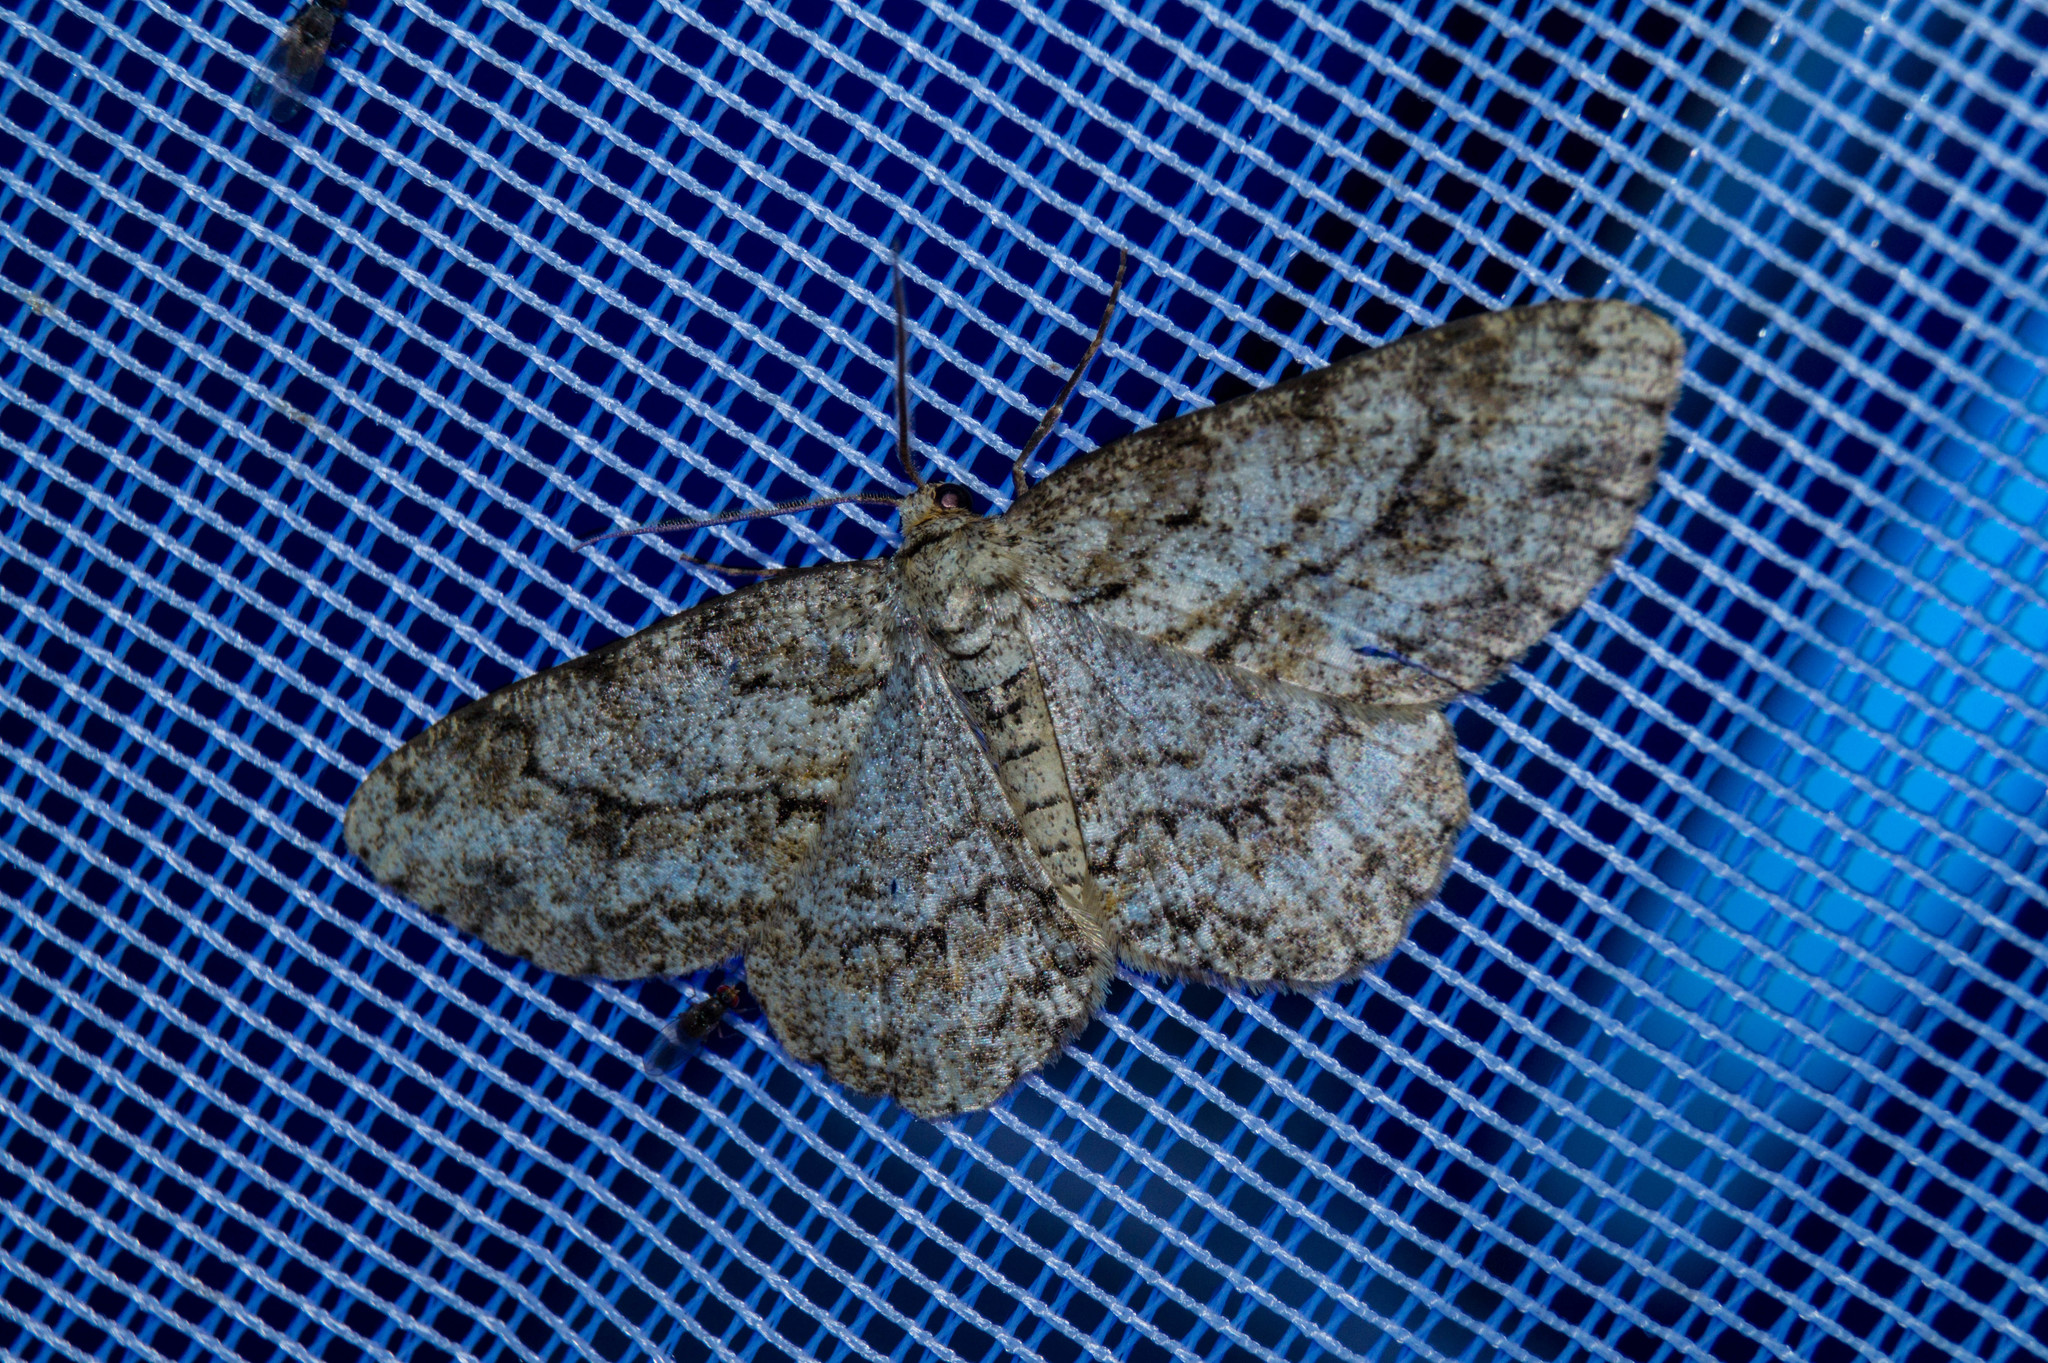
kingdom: Animalia
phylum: Arthropoda
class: Insecta
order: Lepidoptera
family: Geometridae
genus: Ectropis
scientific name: Ectropis crepuscularia
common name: Engrailed
